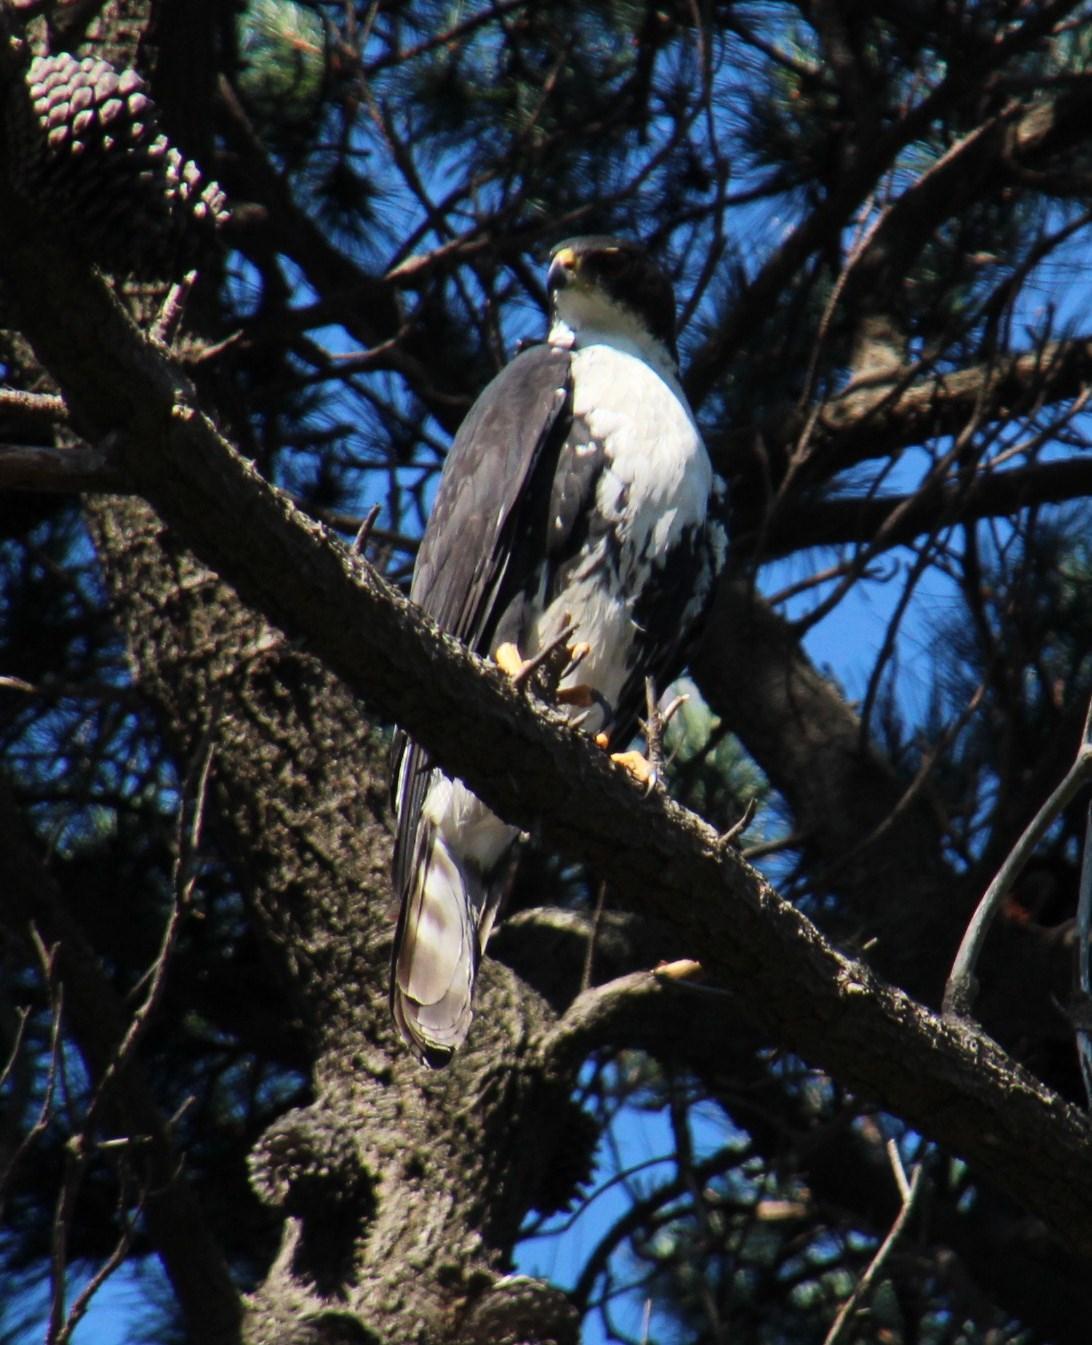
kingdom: Animalia
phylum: Chordata
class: Aves
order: Accipitriformes
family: Accipitridae
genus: Accipiter
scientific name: Accipiter melanoleucus
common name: Black sparrowhawk
